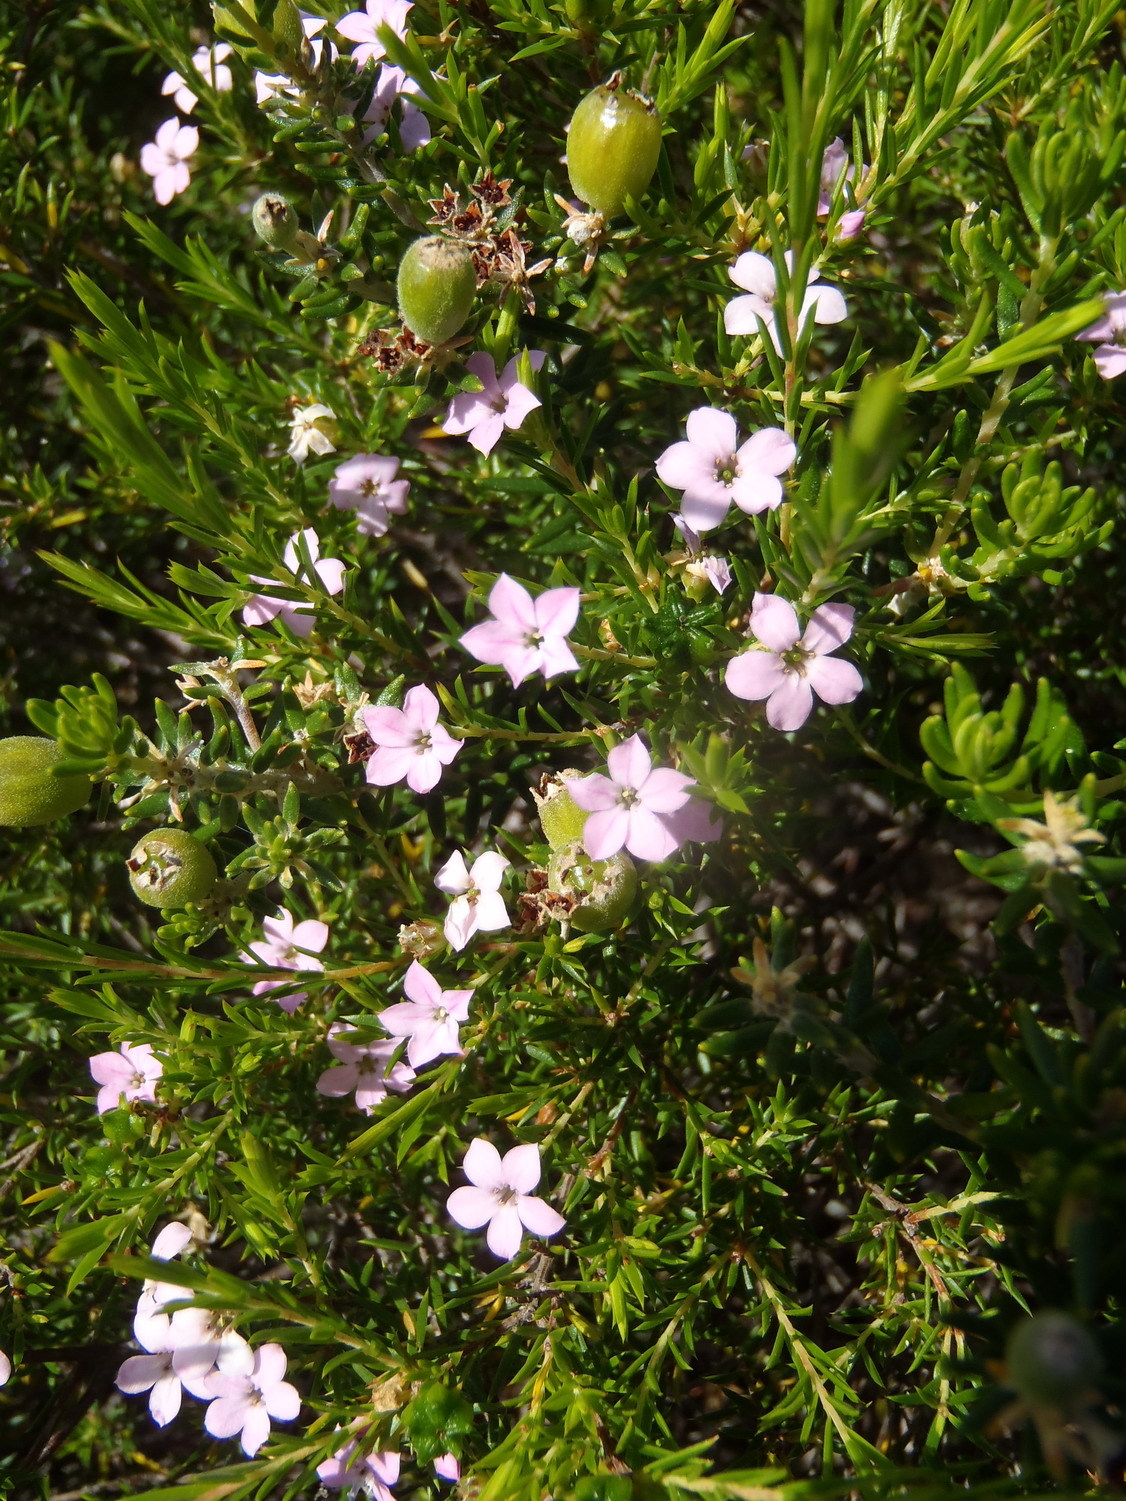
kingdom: Plantae
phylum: Tracheophyta
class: Magnoliopsida
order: Sapindales
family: Rutaceae
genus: Coleonema
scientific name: Coleonema pulchellum
